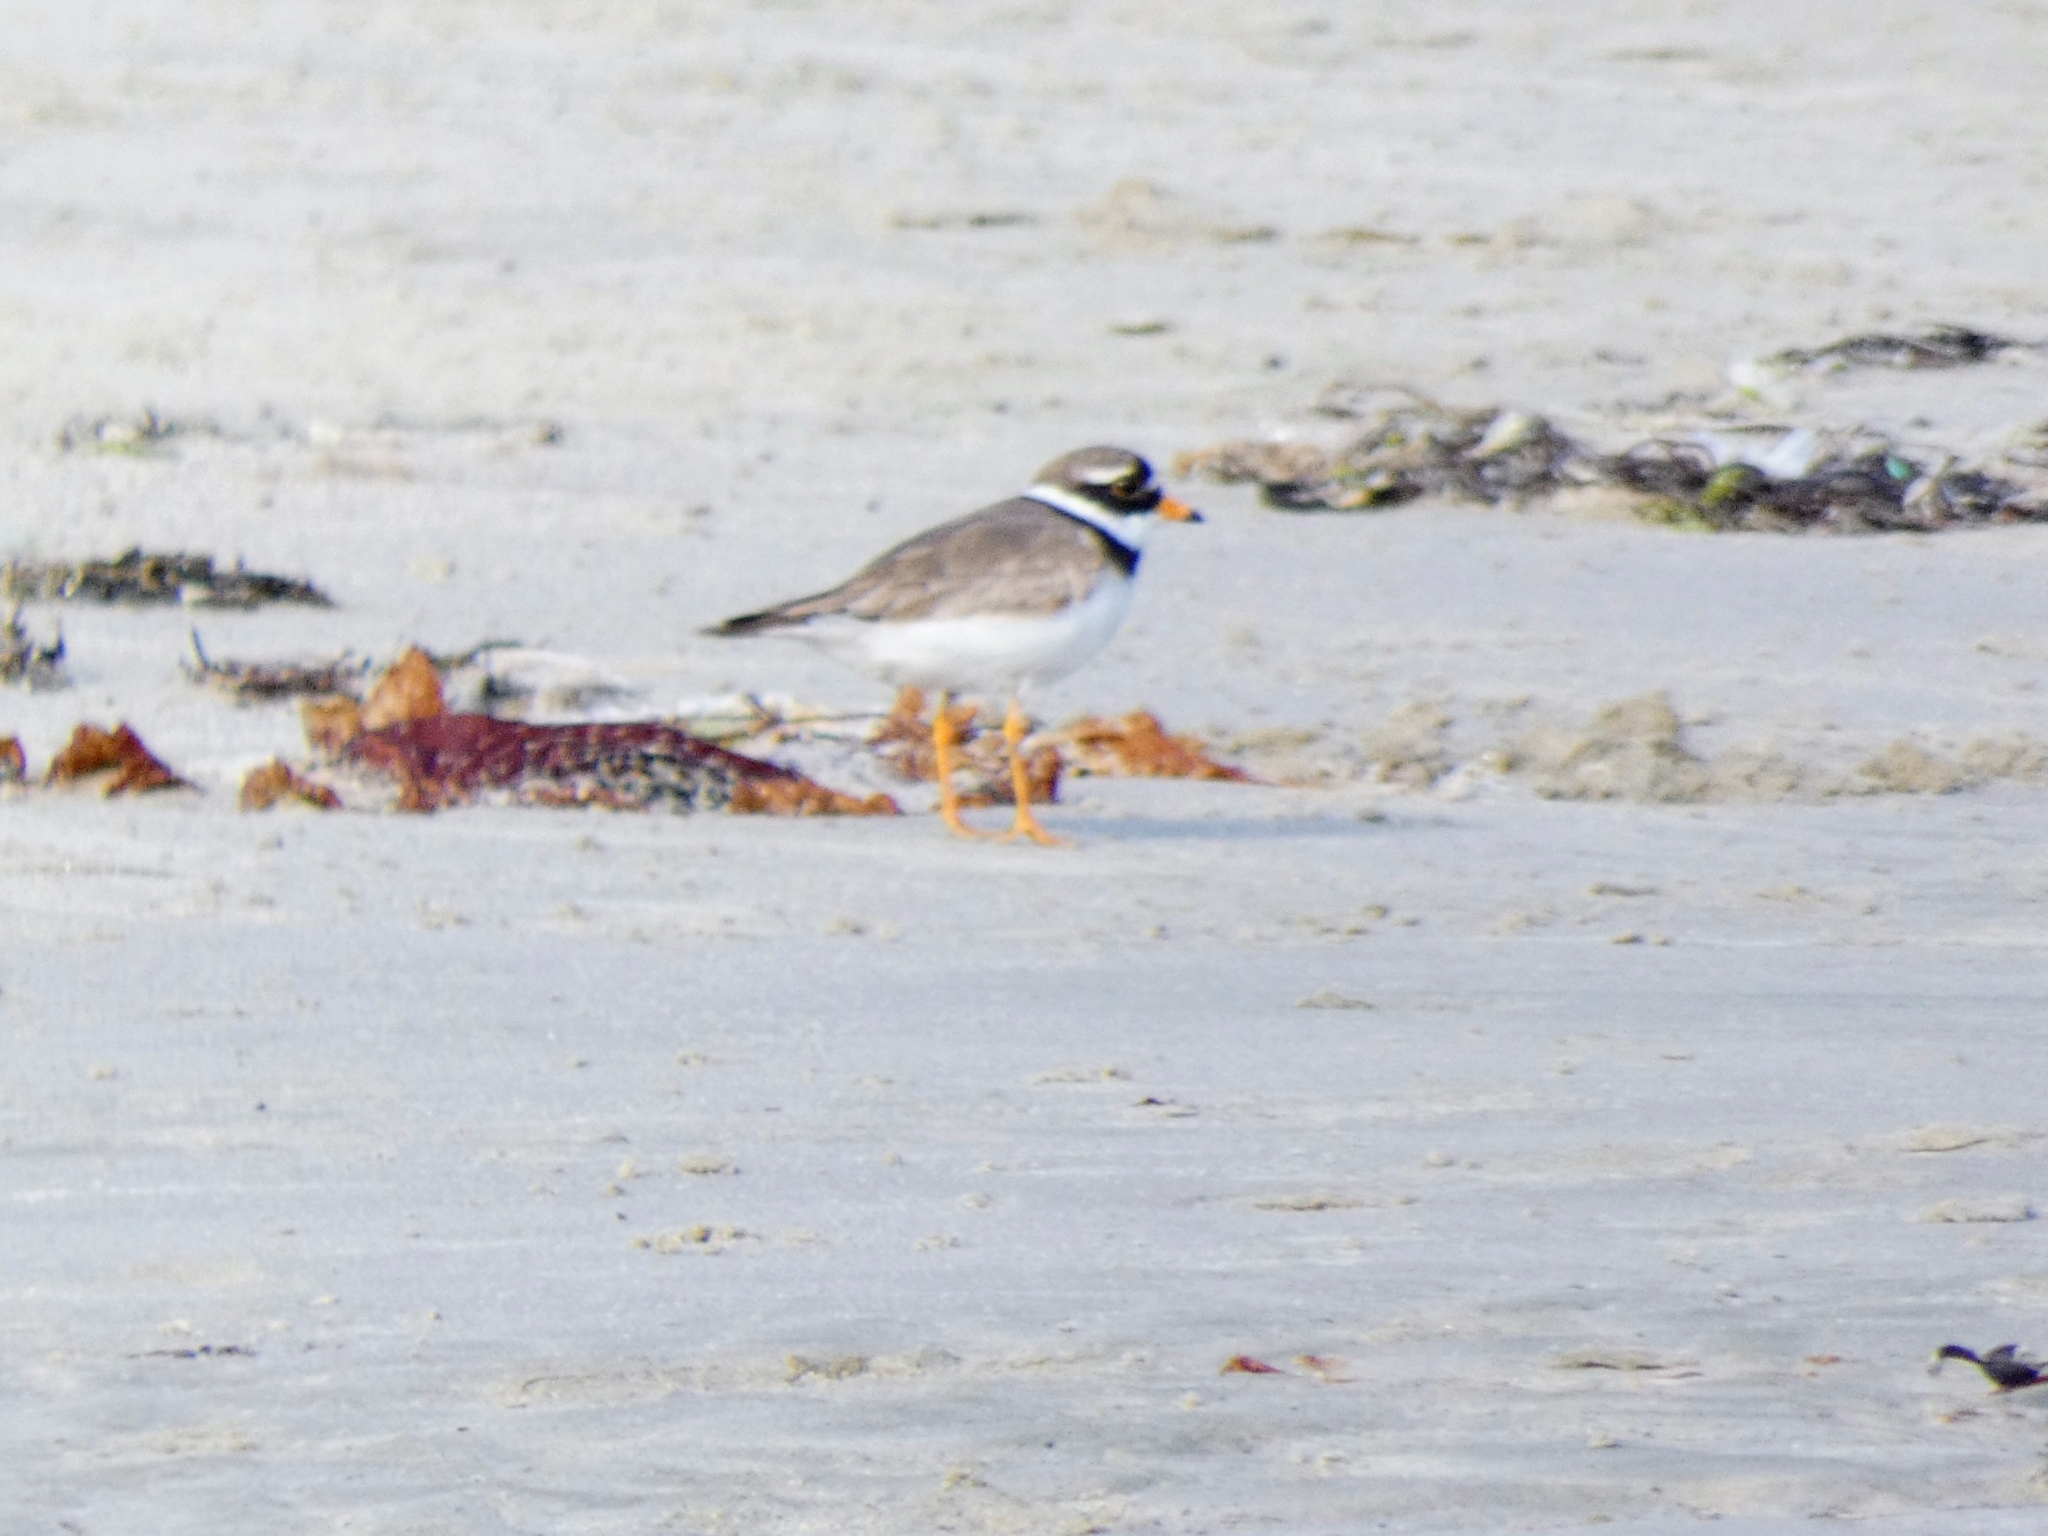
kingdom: Animalia
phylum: Chordata
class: Aves
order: Charadriiformes
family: Charadriidae
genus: Charadrius
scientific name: Charadrius hiaticula
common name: Common ringed plover
